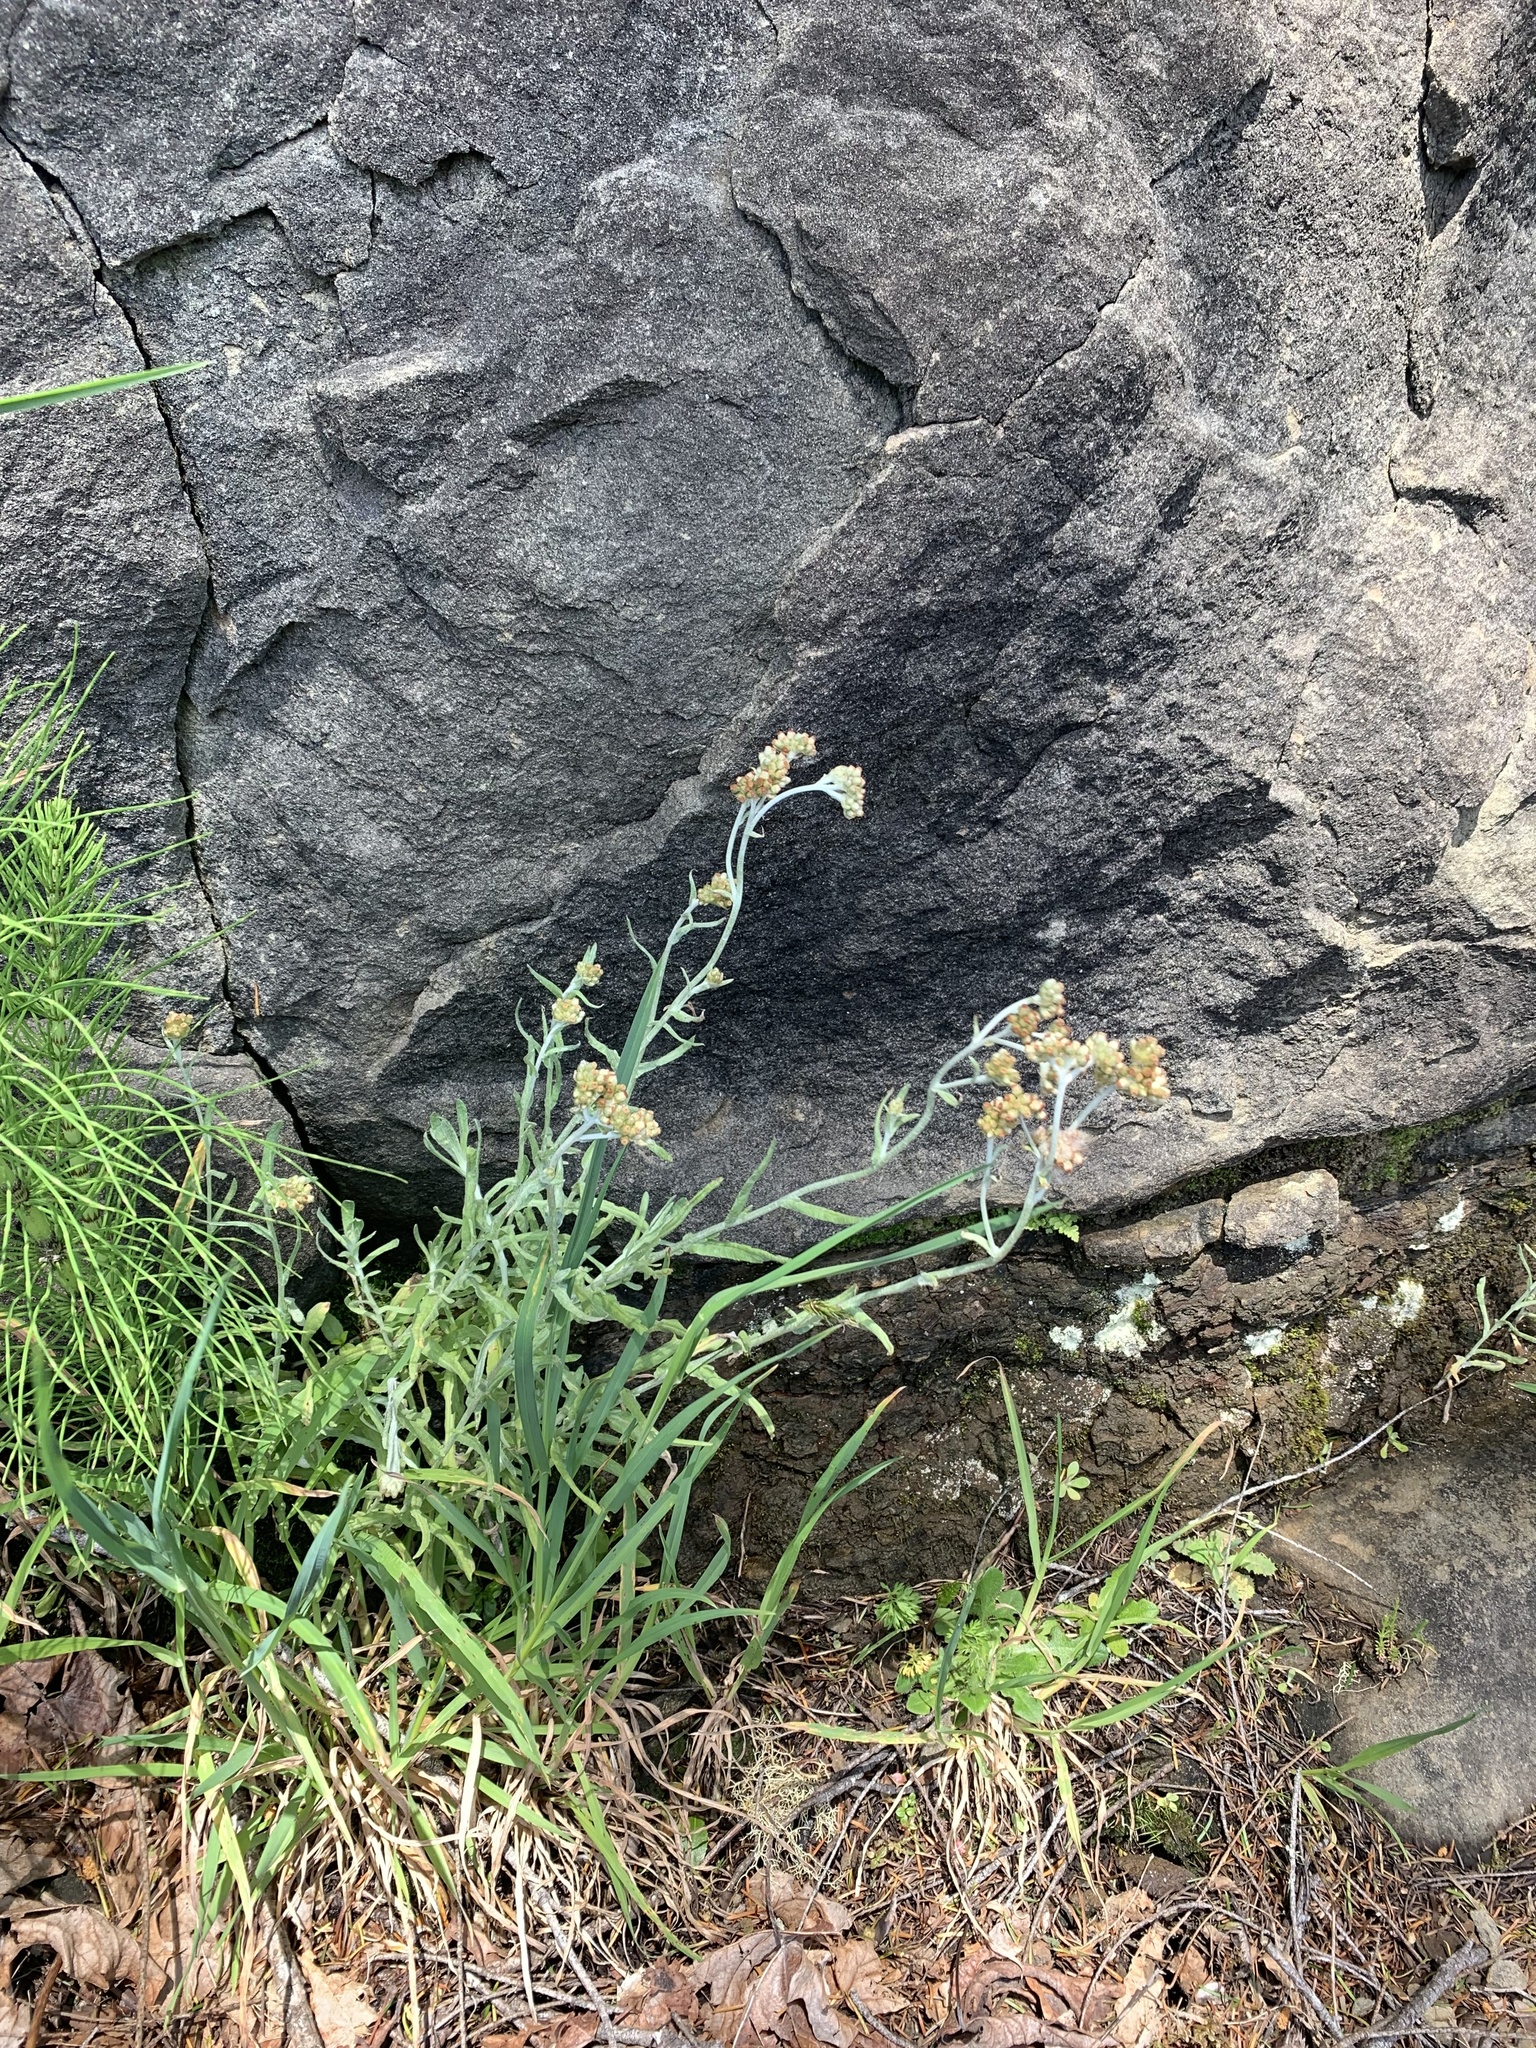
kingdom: Plantae
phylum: Tracheophyta
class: Magnoliopsida
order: Asterales
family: Asteraceae
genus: Anaphalis
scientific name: Anaphalis margaritacea
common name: Pearly everlasting
